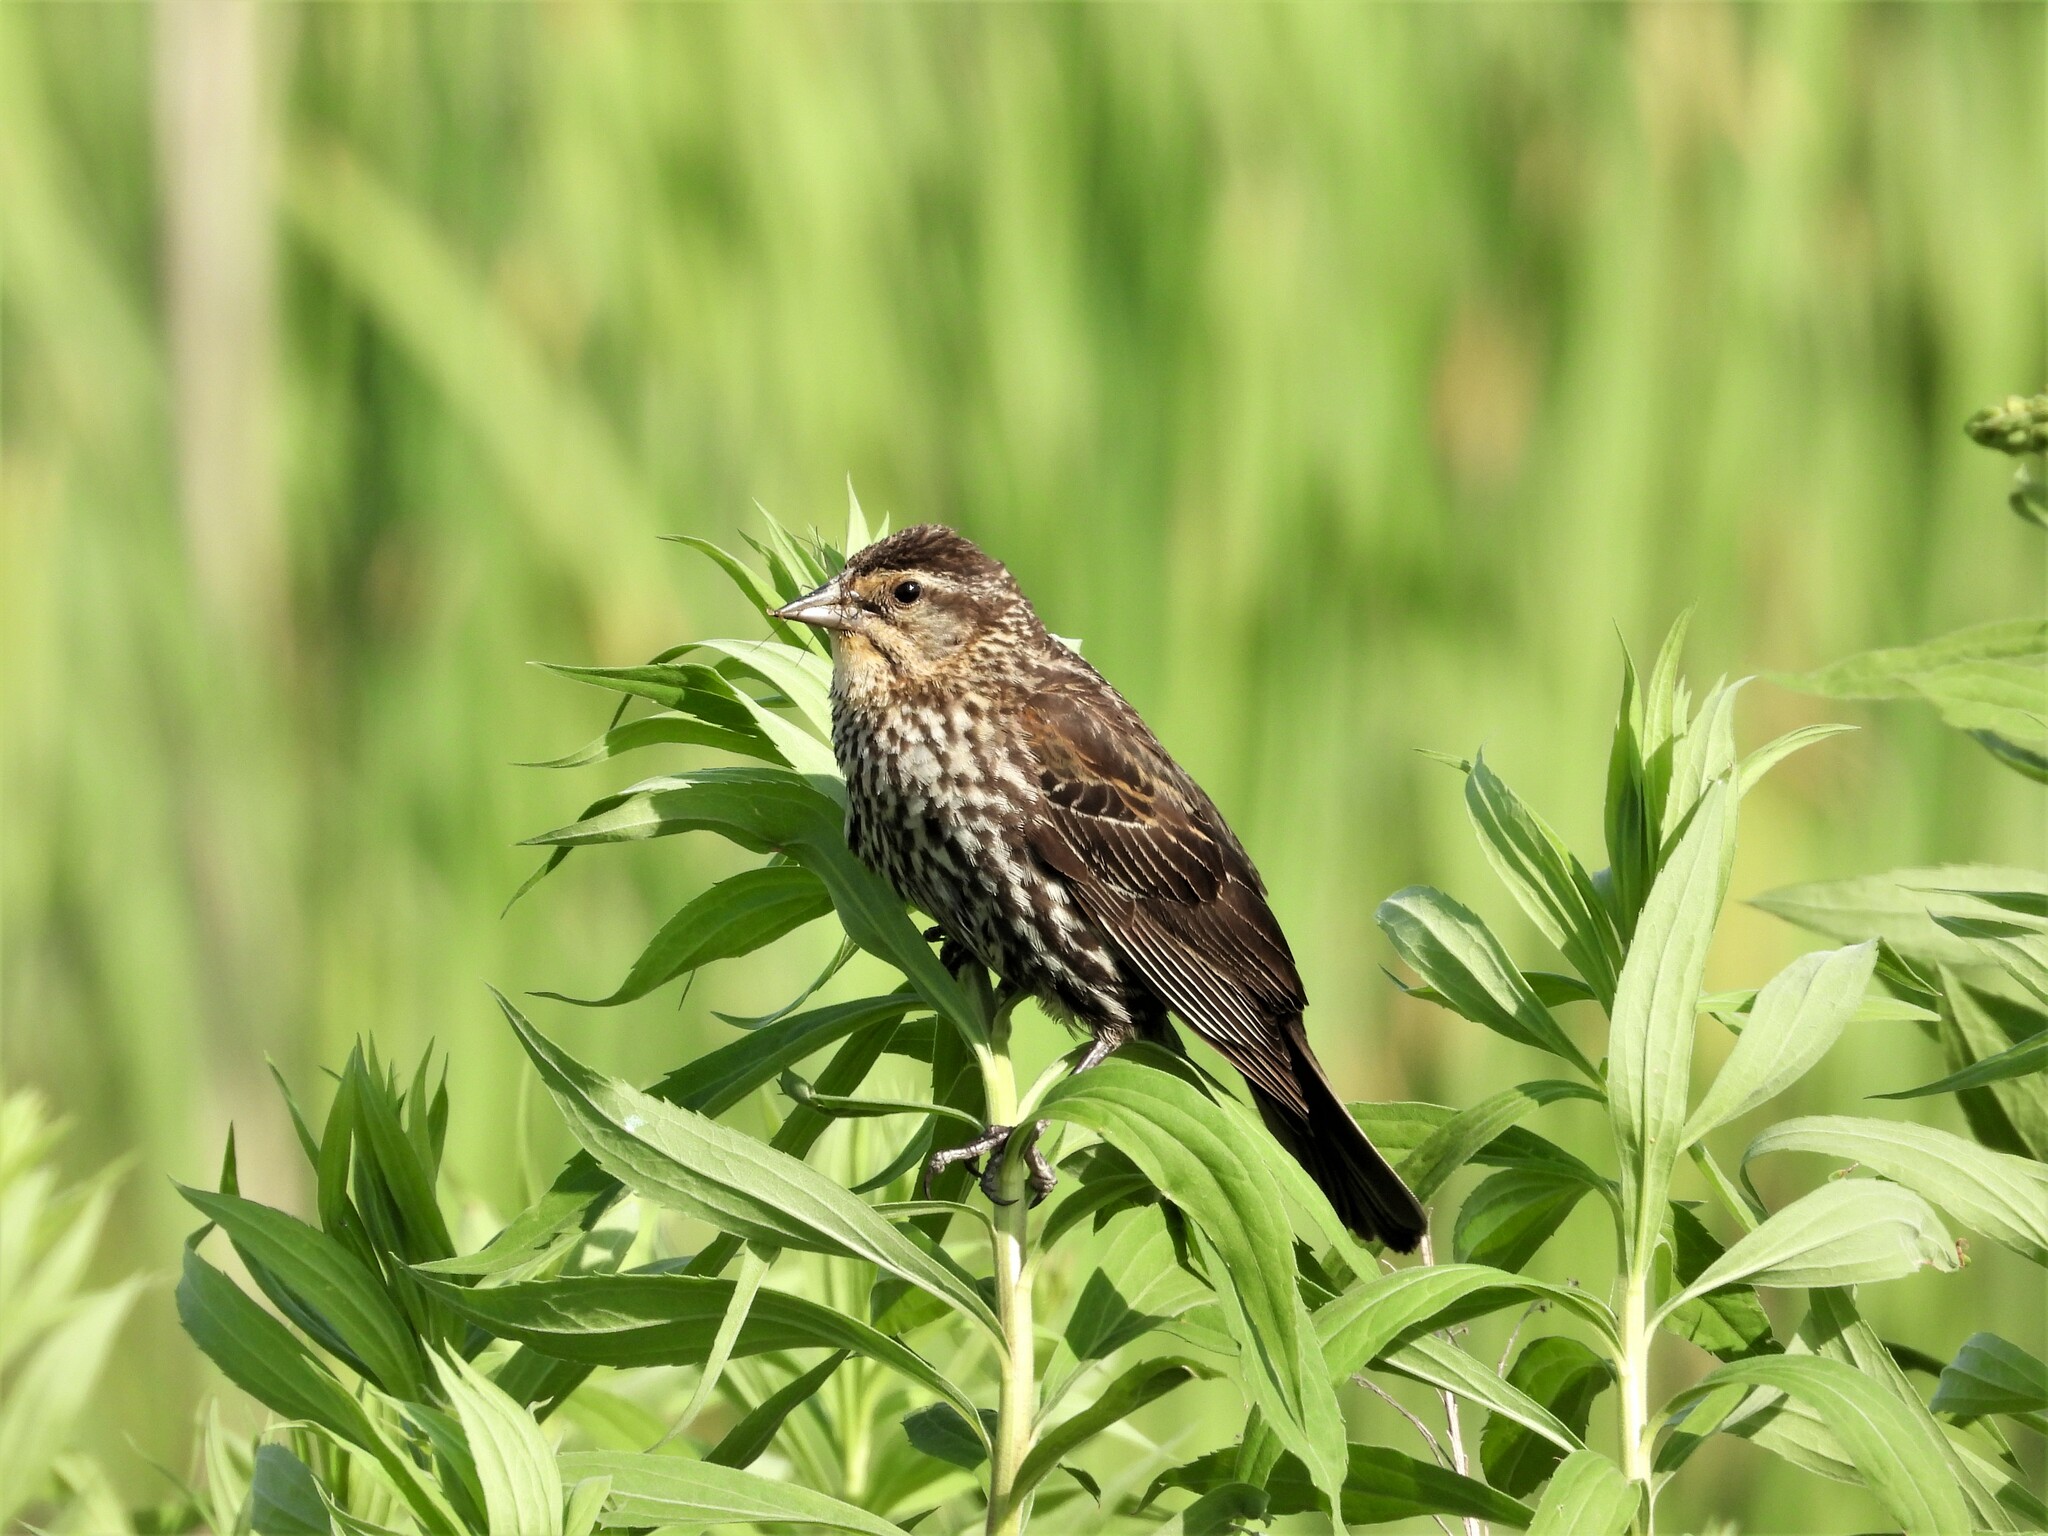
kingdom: Animalia
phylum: Chordata
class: Aves
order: Passeriformes
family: Icteridae
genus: Agelaius
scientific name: Agelaius phoeniceus
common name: Red-winged blackbird
